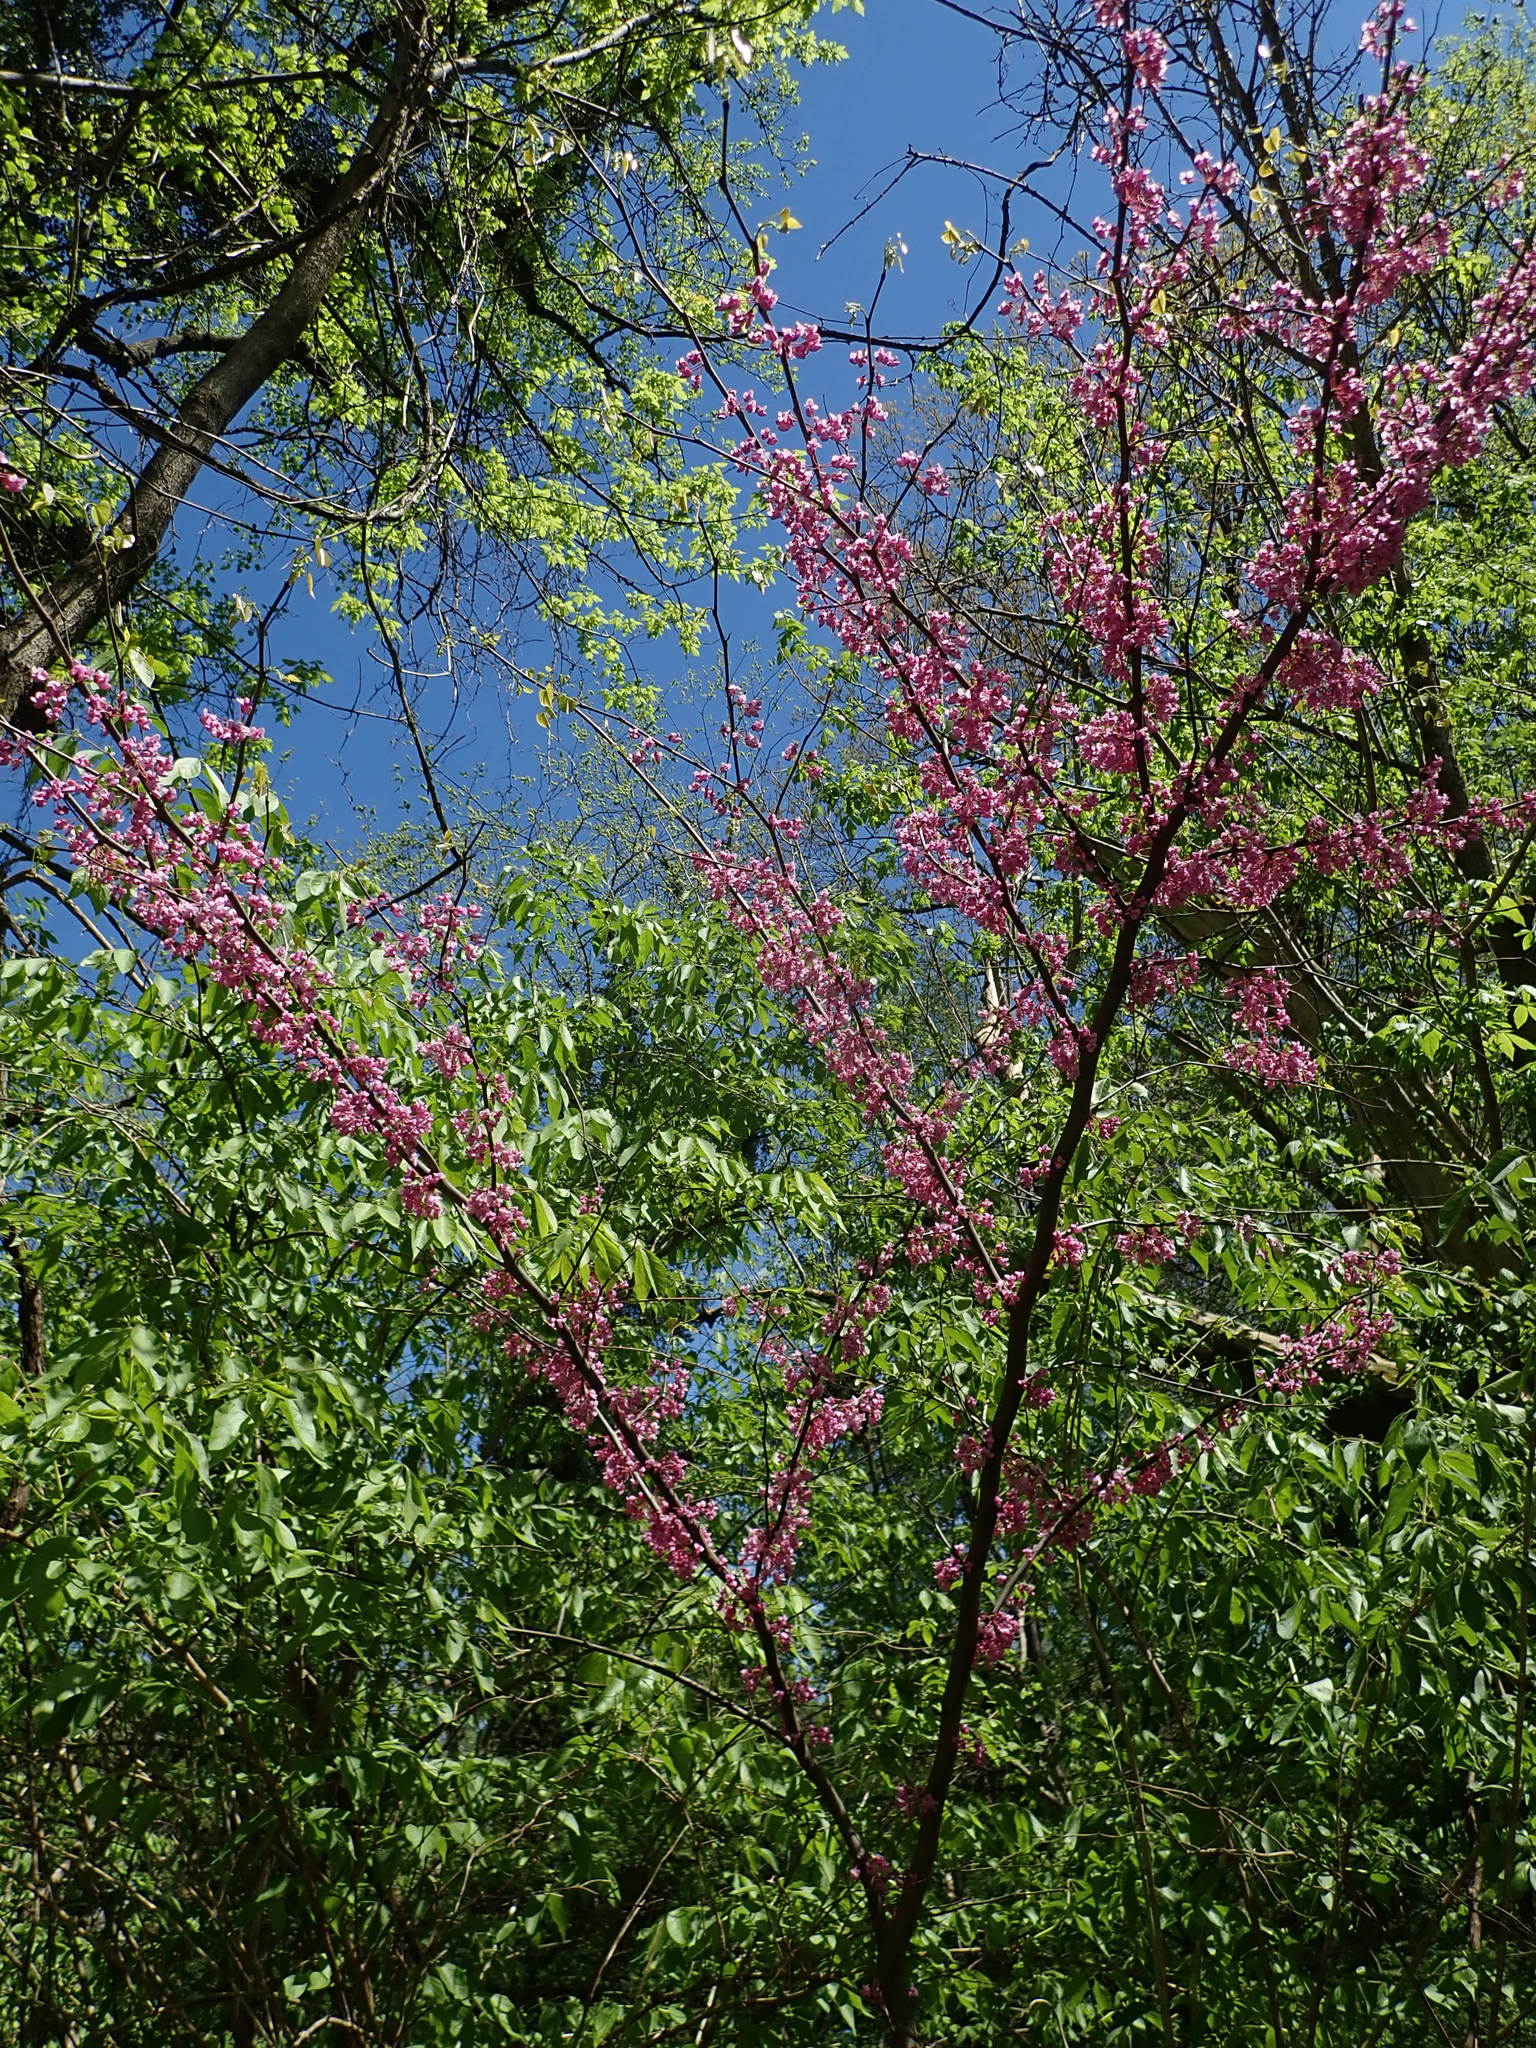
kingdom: Plantae
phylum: Tracheophyta
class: Magnoliopsida
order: Fabales
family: Fabaceae
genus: Cercis
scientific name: Cercis canadensis
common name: Eastern redbud
